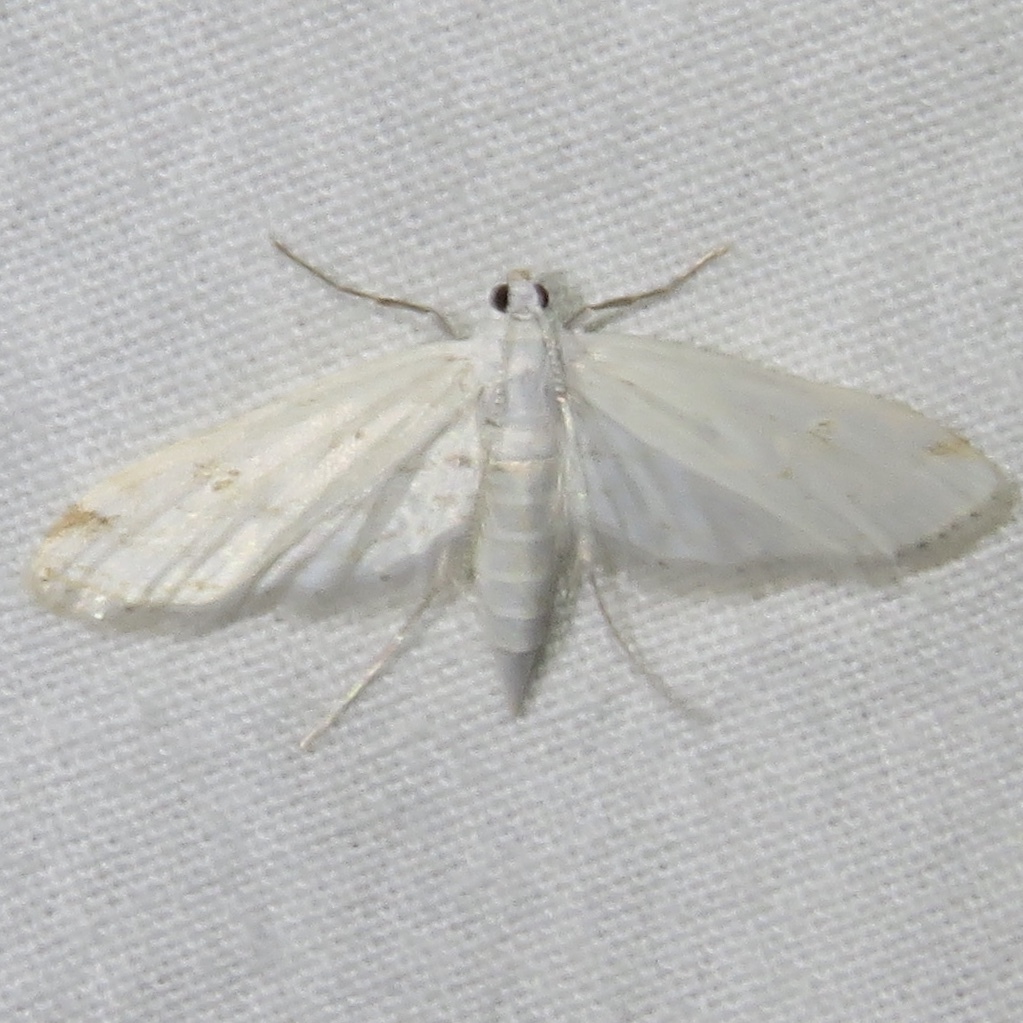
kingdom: Animalia
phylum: Arthropoda
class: Insecta
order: Lepidoptera
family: Crambidae
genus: Parapoynx
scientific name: Parapoynx allionealis
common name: Bladderwort casemaker
